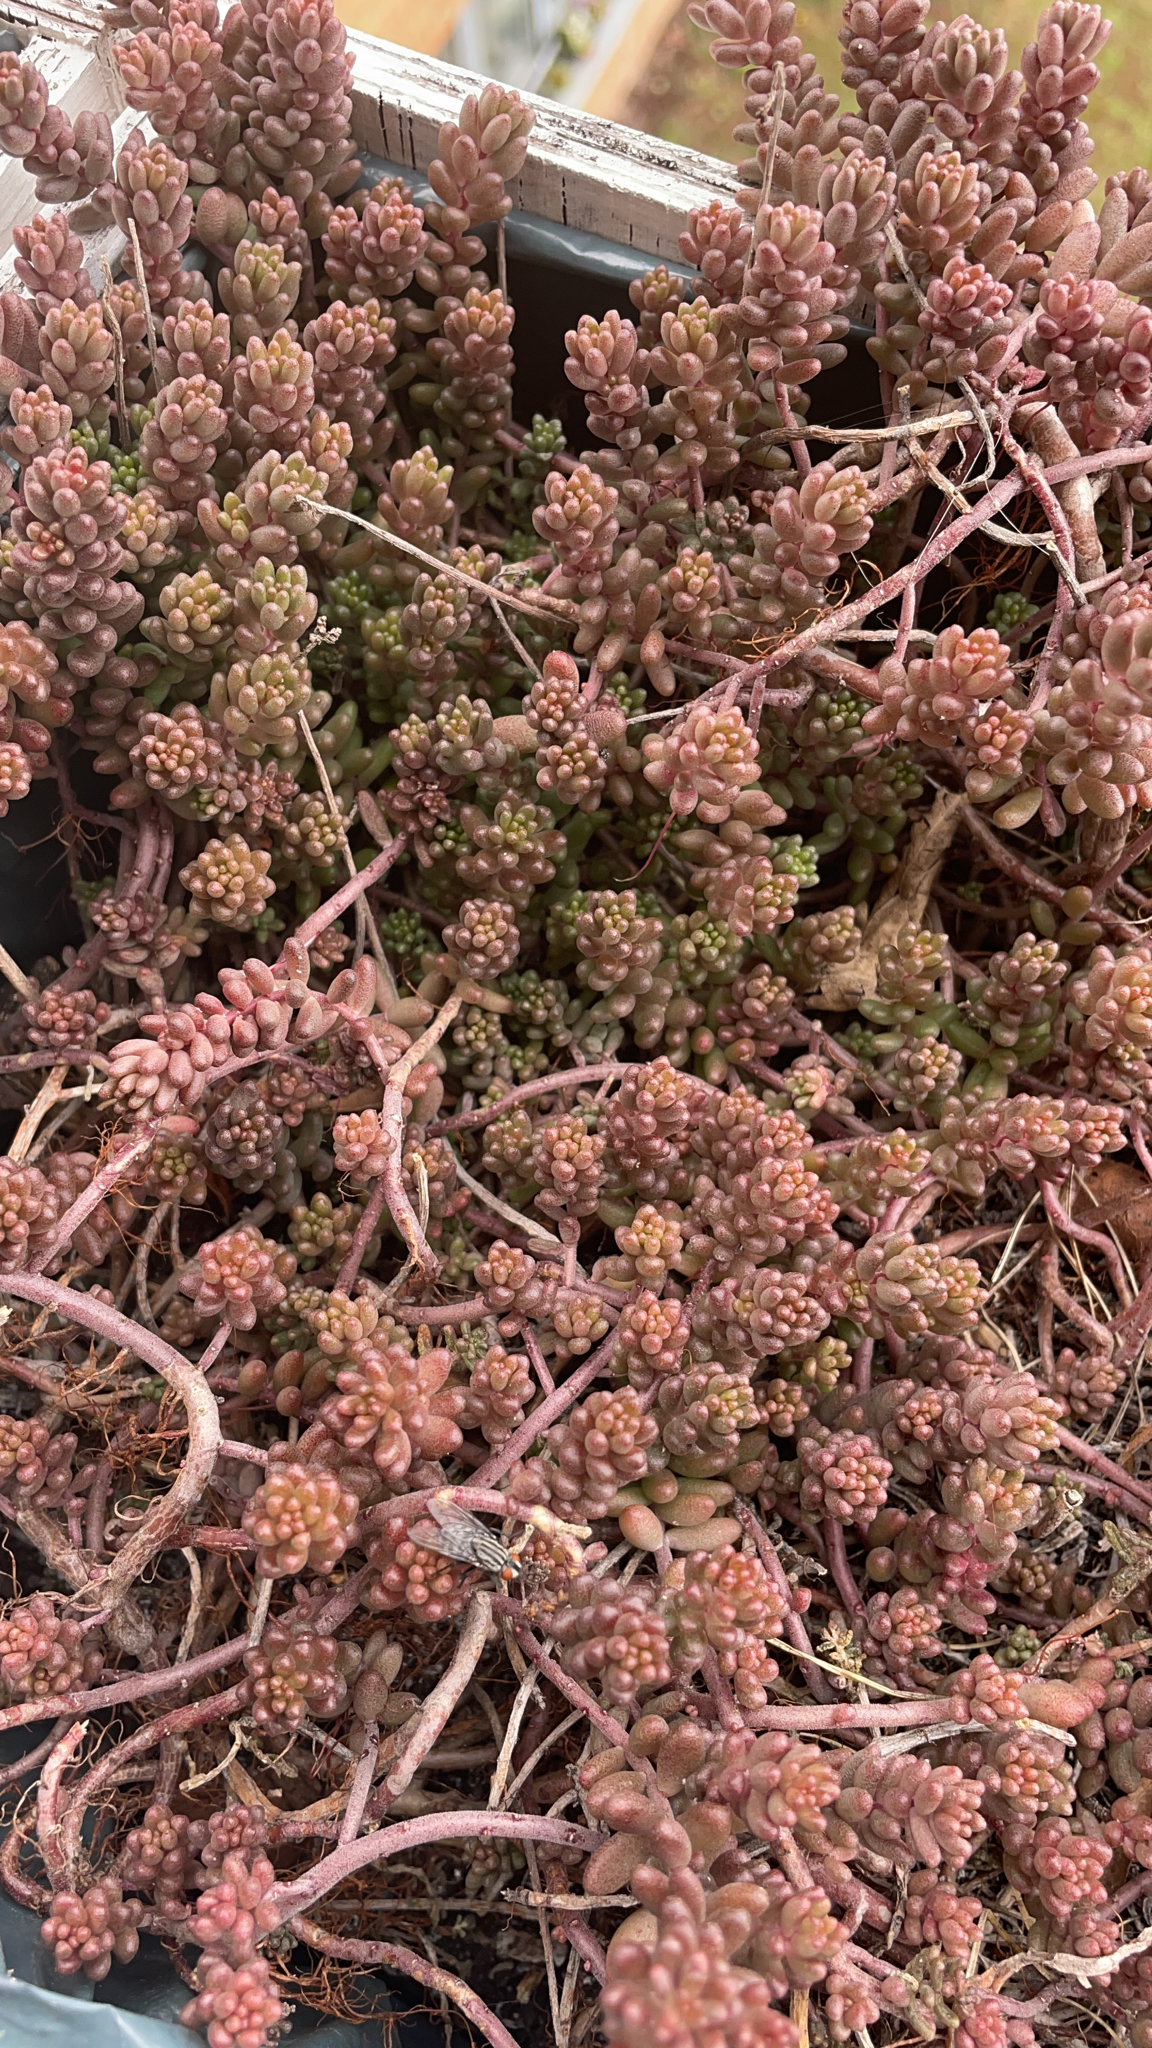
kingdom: Plantae
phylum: Tracheophyta
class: Magnoliopsida
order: Saxifragales
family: Crassulaceae
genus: Sedum
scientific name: Sedum album
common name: White stonecrop
